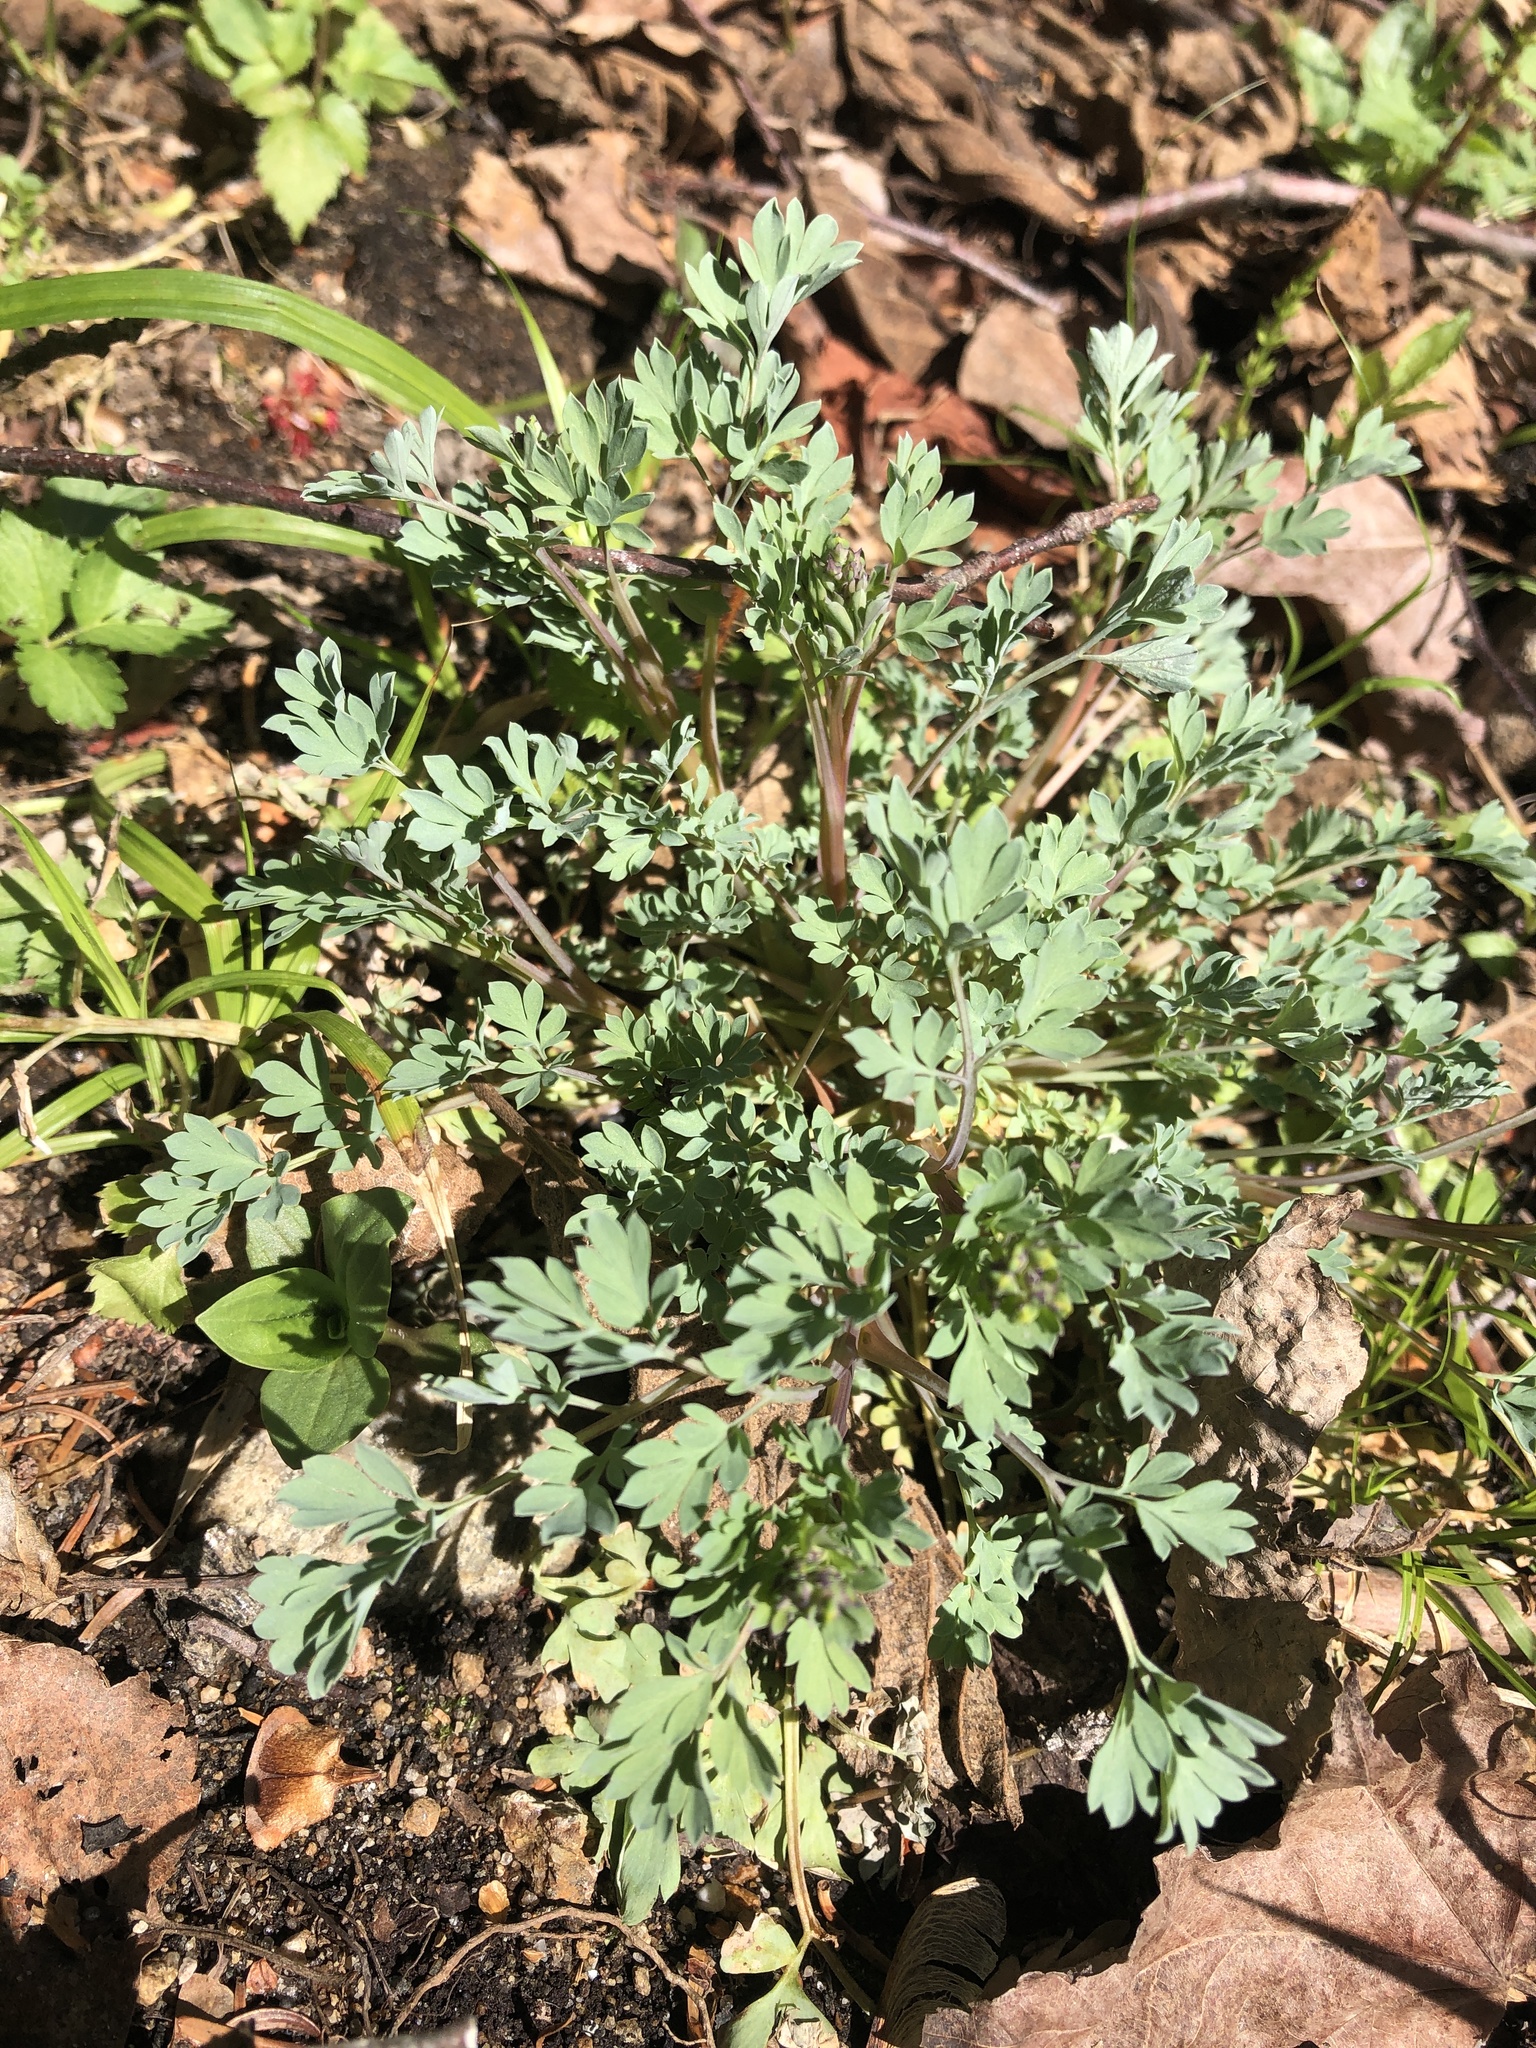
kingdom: Plantae
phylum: Tracheophyta
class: Magnoliopsida
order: Ranunculales
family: Papaveraceae
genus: Capnoides
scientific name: Capnoides sempervirens
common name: Rock harlequin
